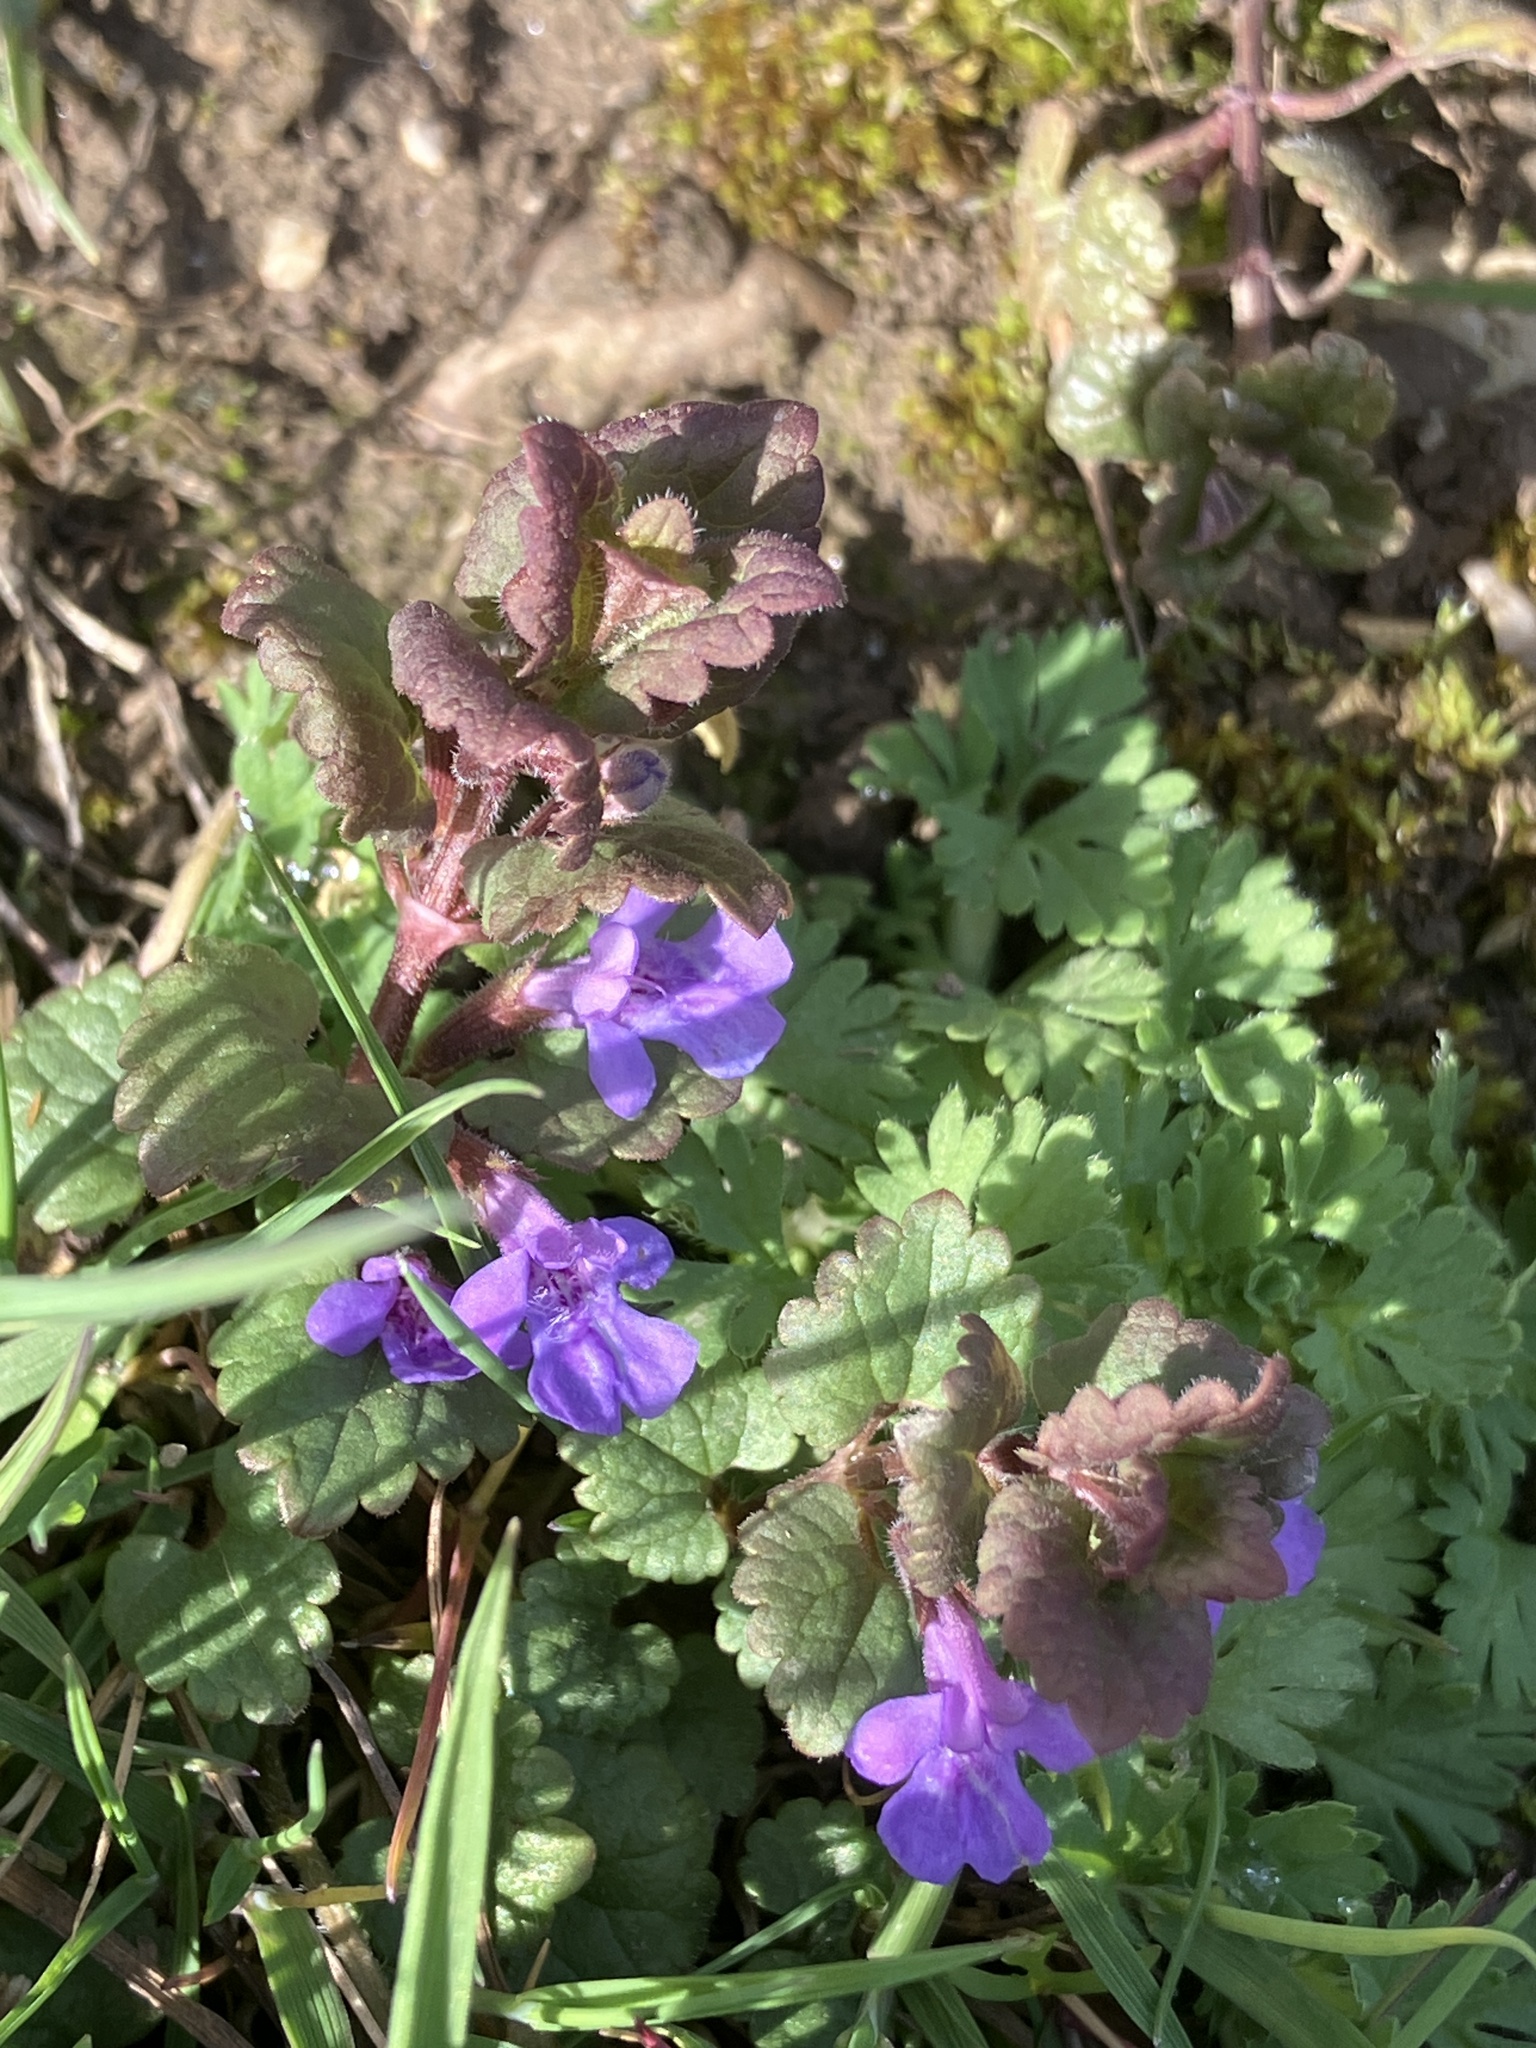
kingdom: Plantae
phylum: Tracheophyta
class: Magnoliopsida
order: Lamiales
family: Lamiaceae
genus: Glechoma
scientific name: Glechoma hederacea
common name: Ground ivy
